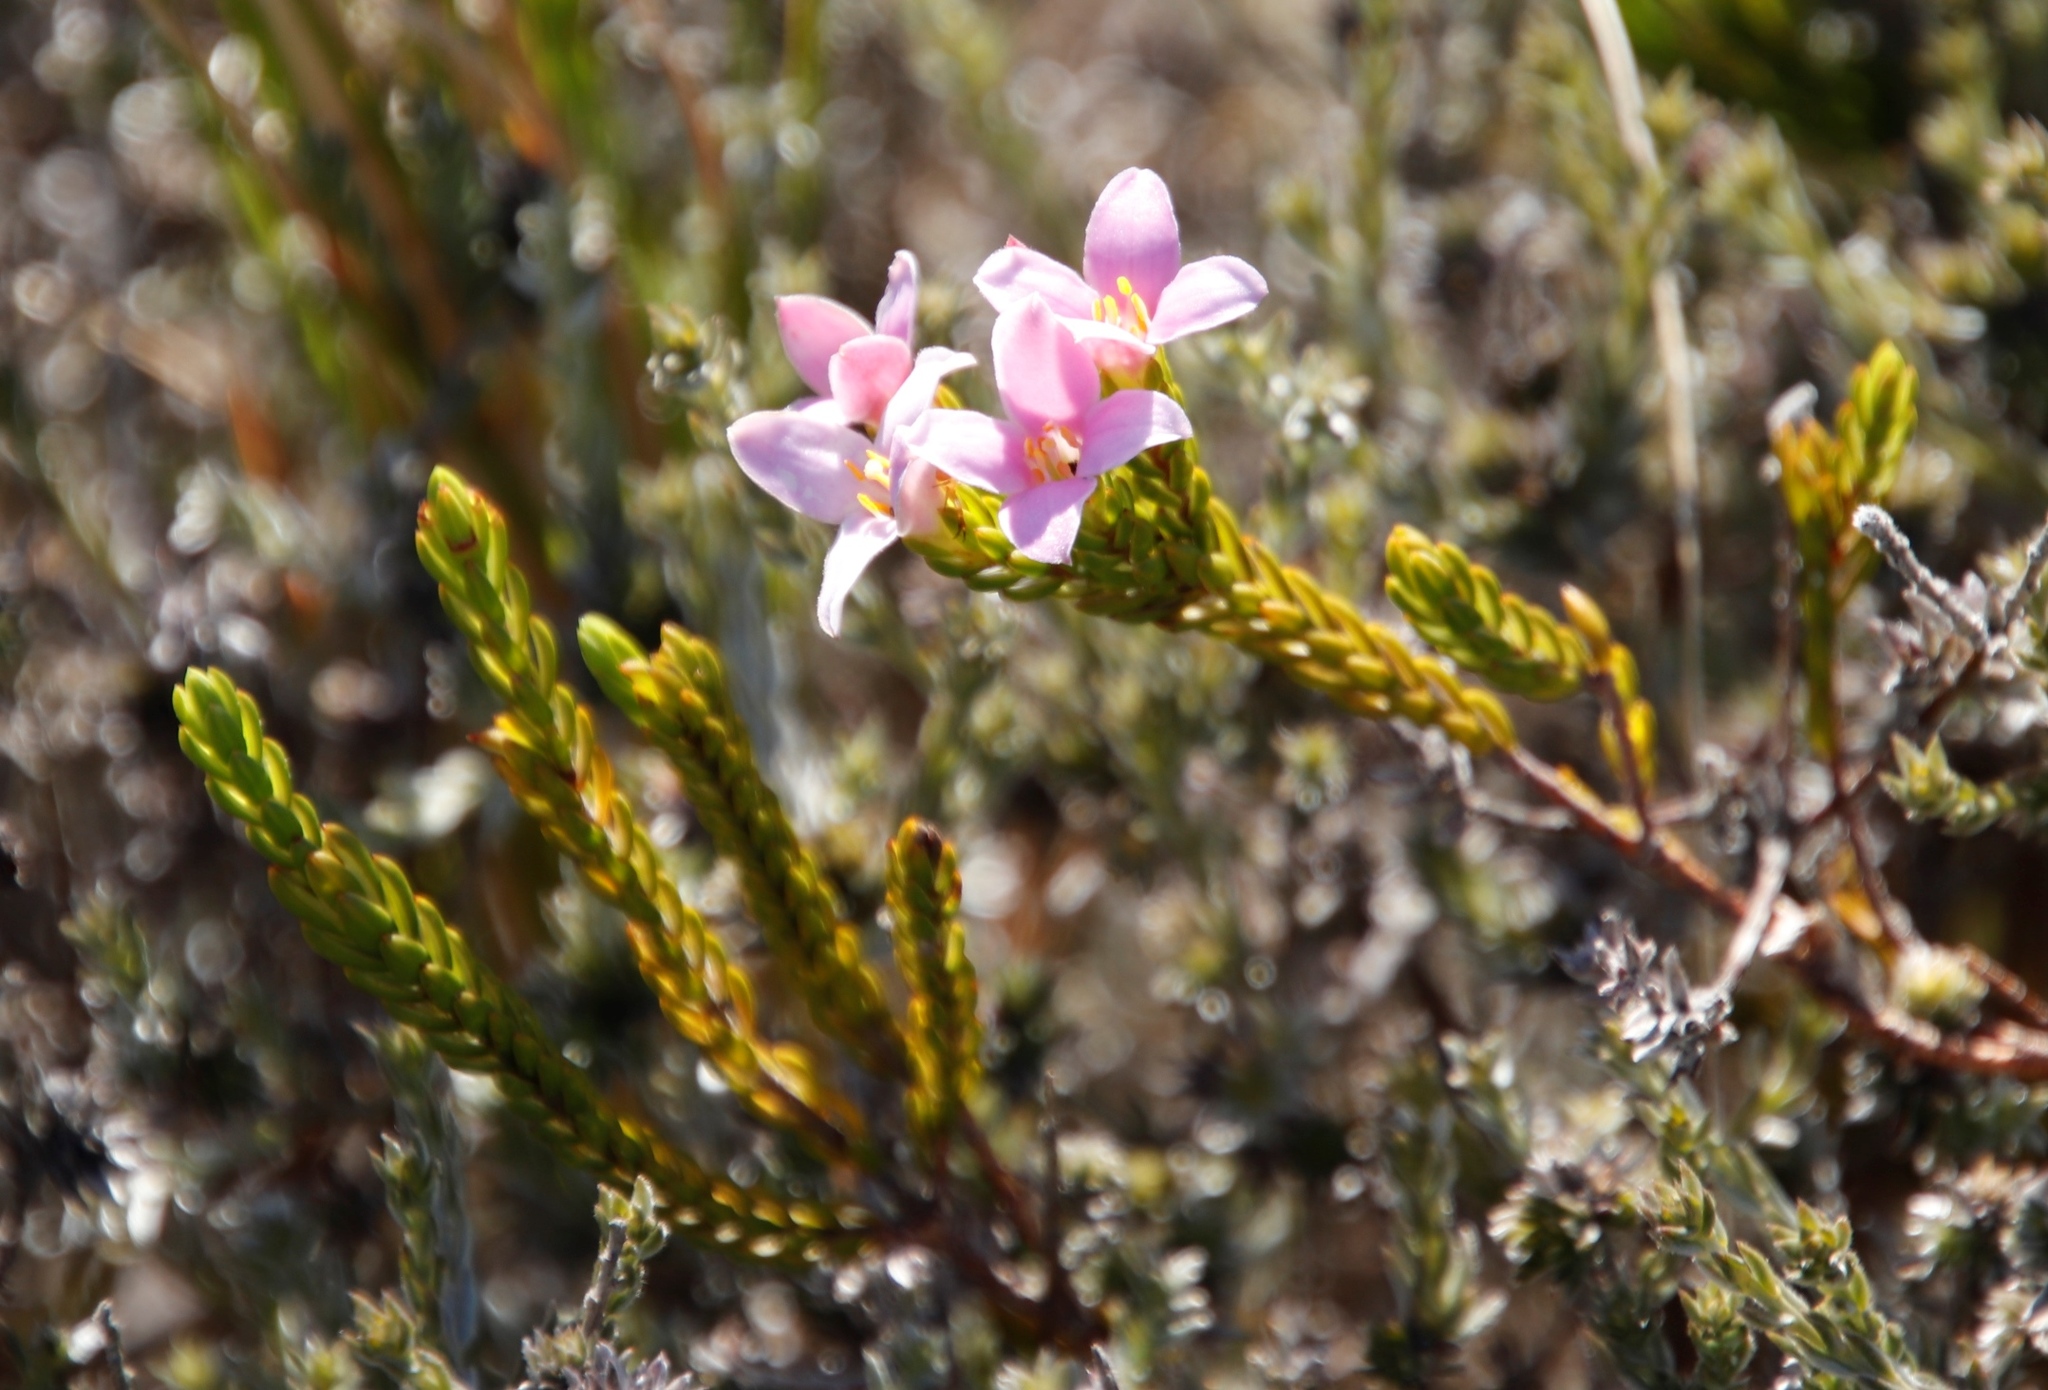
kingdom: Plantae
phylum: Tracheophyta
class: Magnoliopsida
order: Malvales
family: Thymelaeaceae
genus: Lachnaea
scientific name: Lachnaea grandiflora
